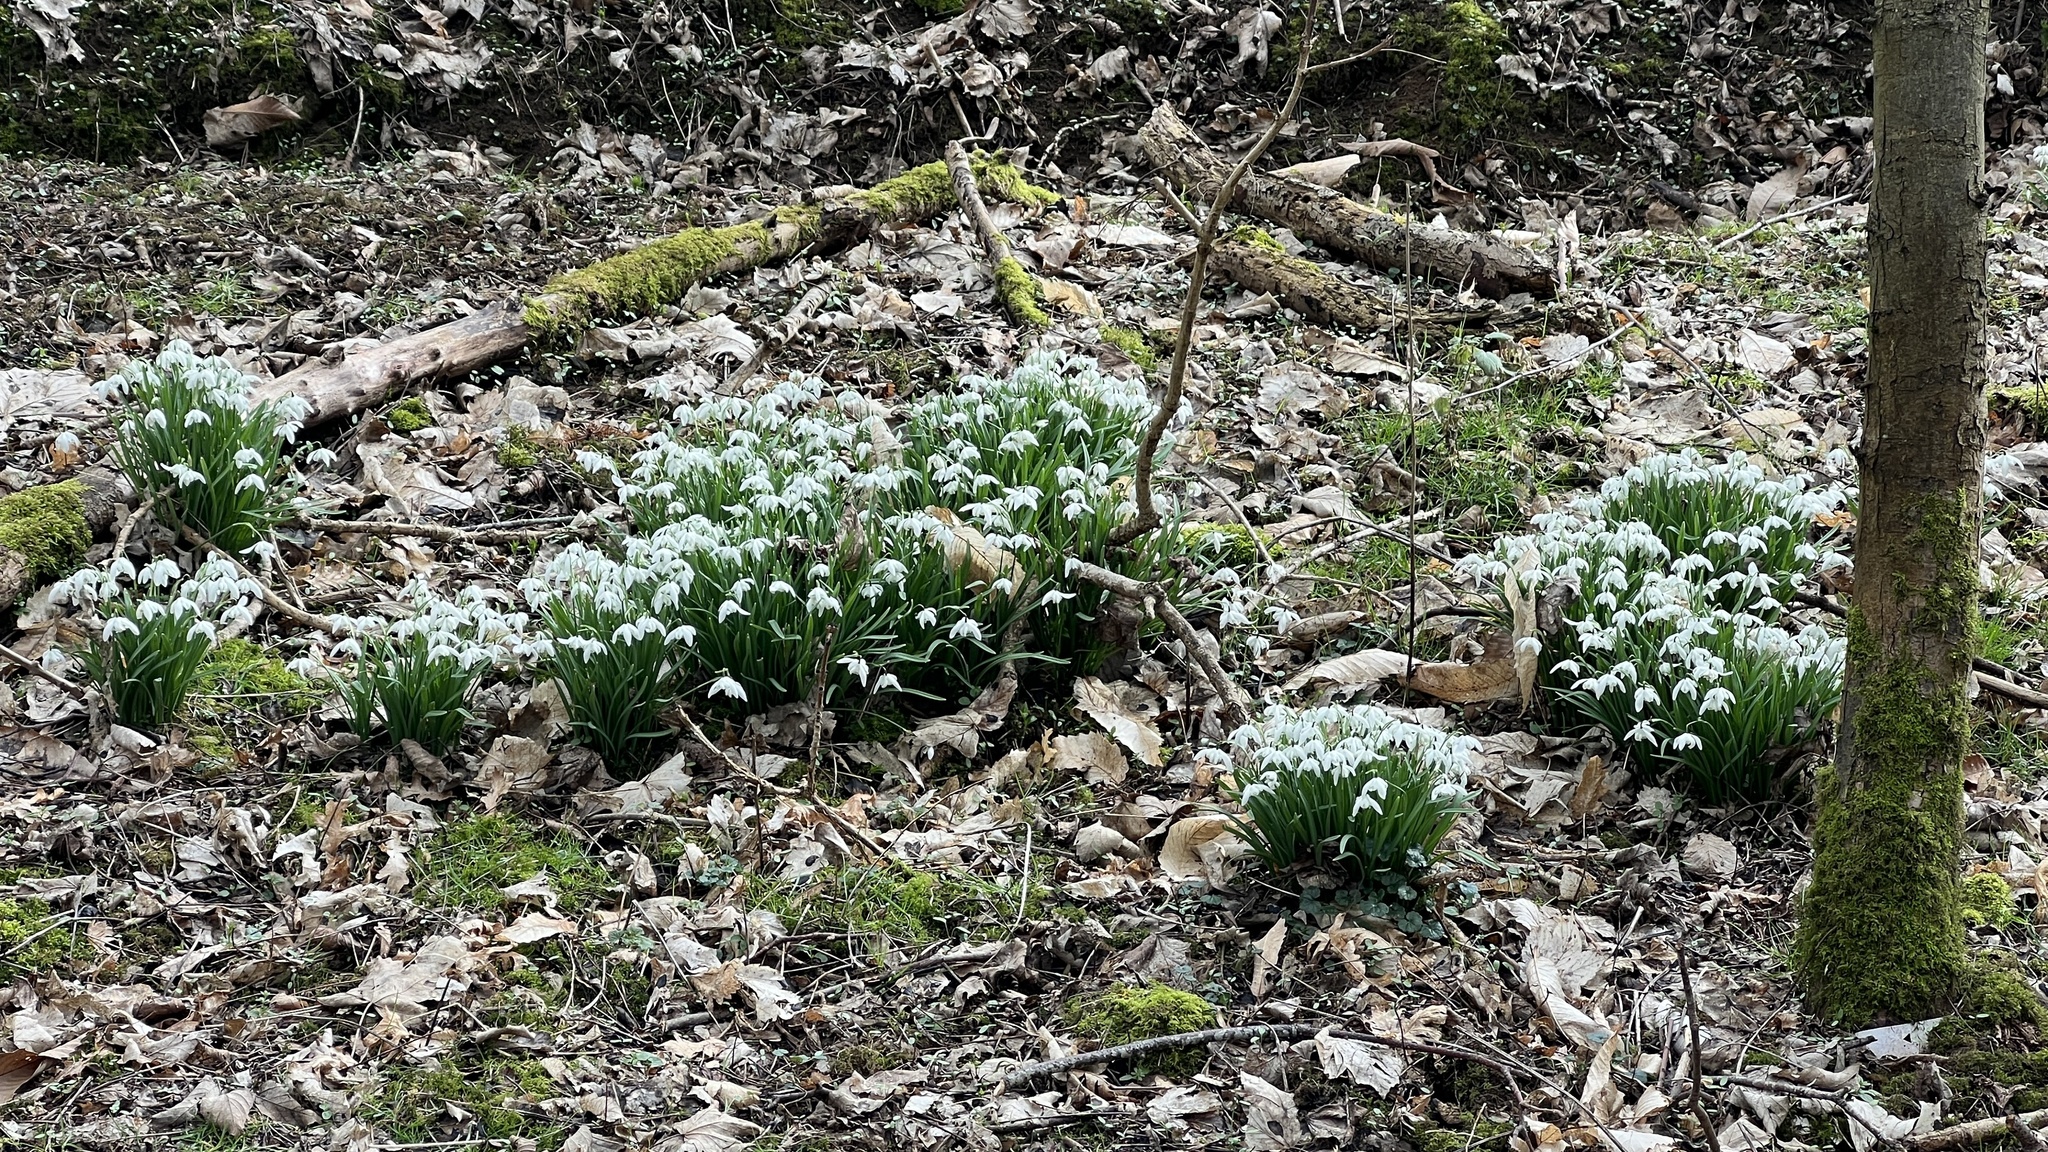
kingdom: Plantae
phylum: Tracheophyta
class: Liliopsida
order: Asparagales
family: Amaryllidaceae
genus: Galanthus
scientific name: Galanthus nivalis
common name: Snowdrop
